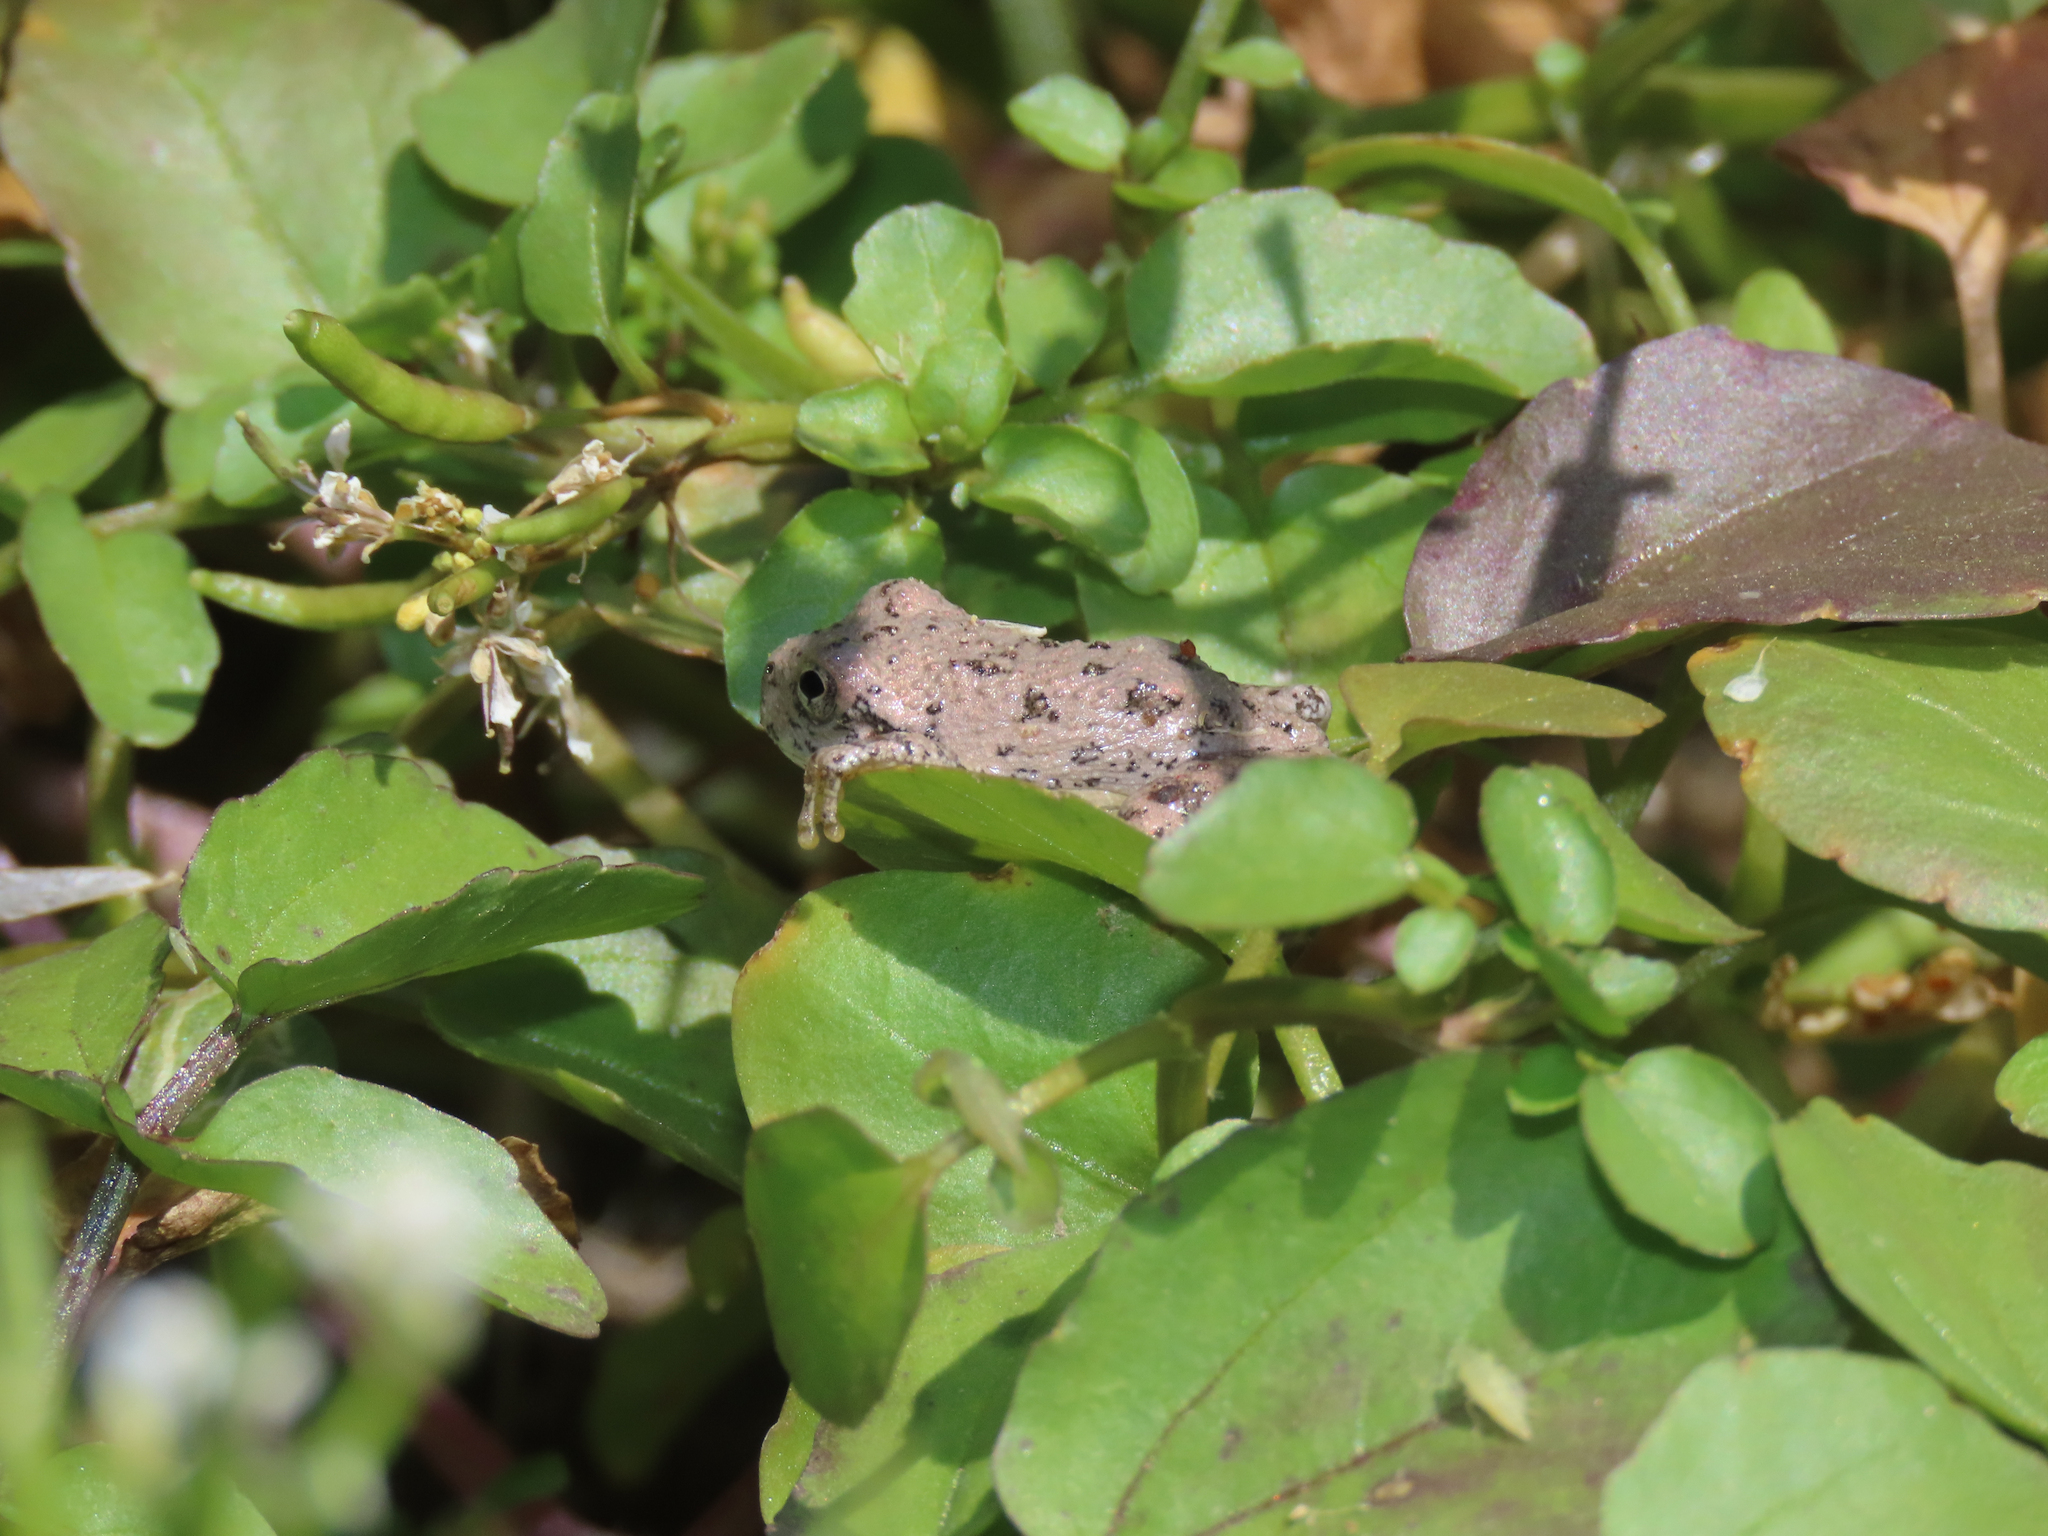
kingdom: Animalia
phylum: Chordata
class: Amphibia
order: Anura
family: Hylidae
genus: Dryophytes
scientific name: Dryophytes arenicolor
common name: Canyon treefrog
